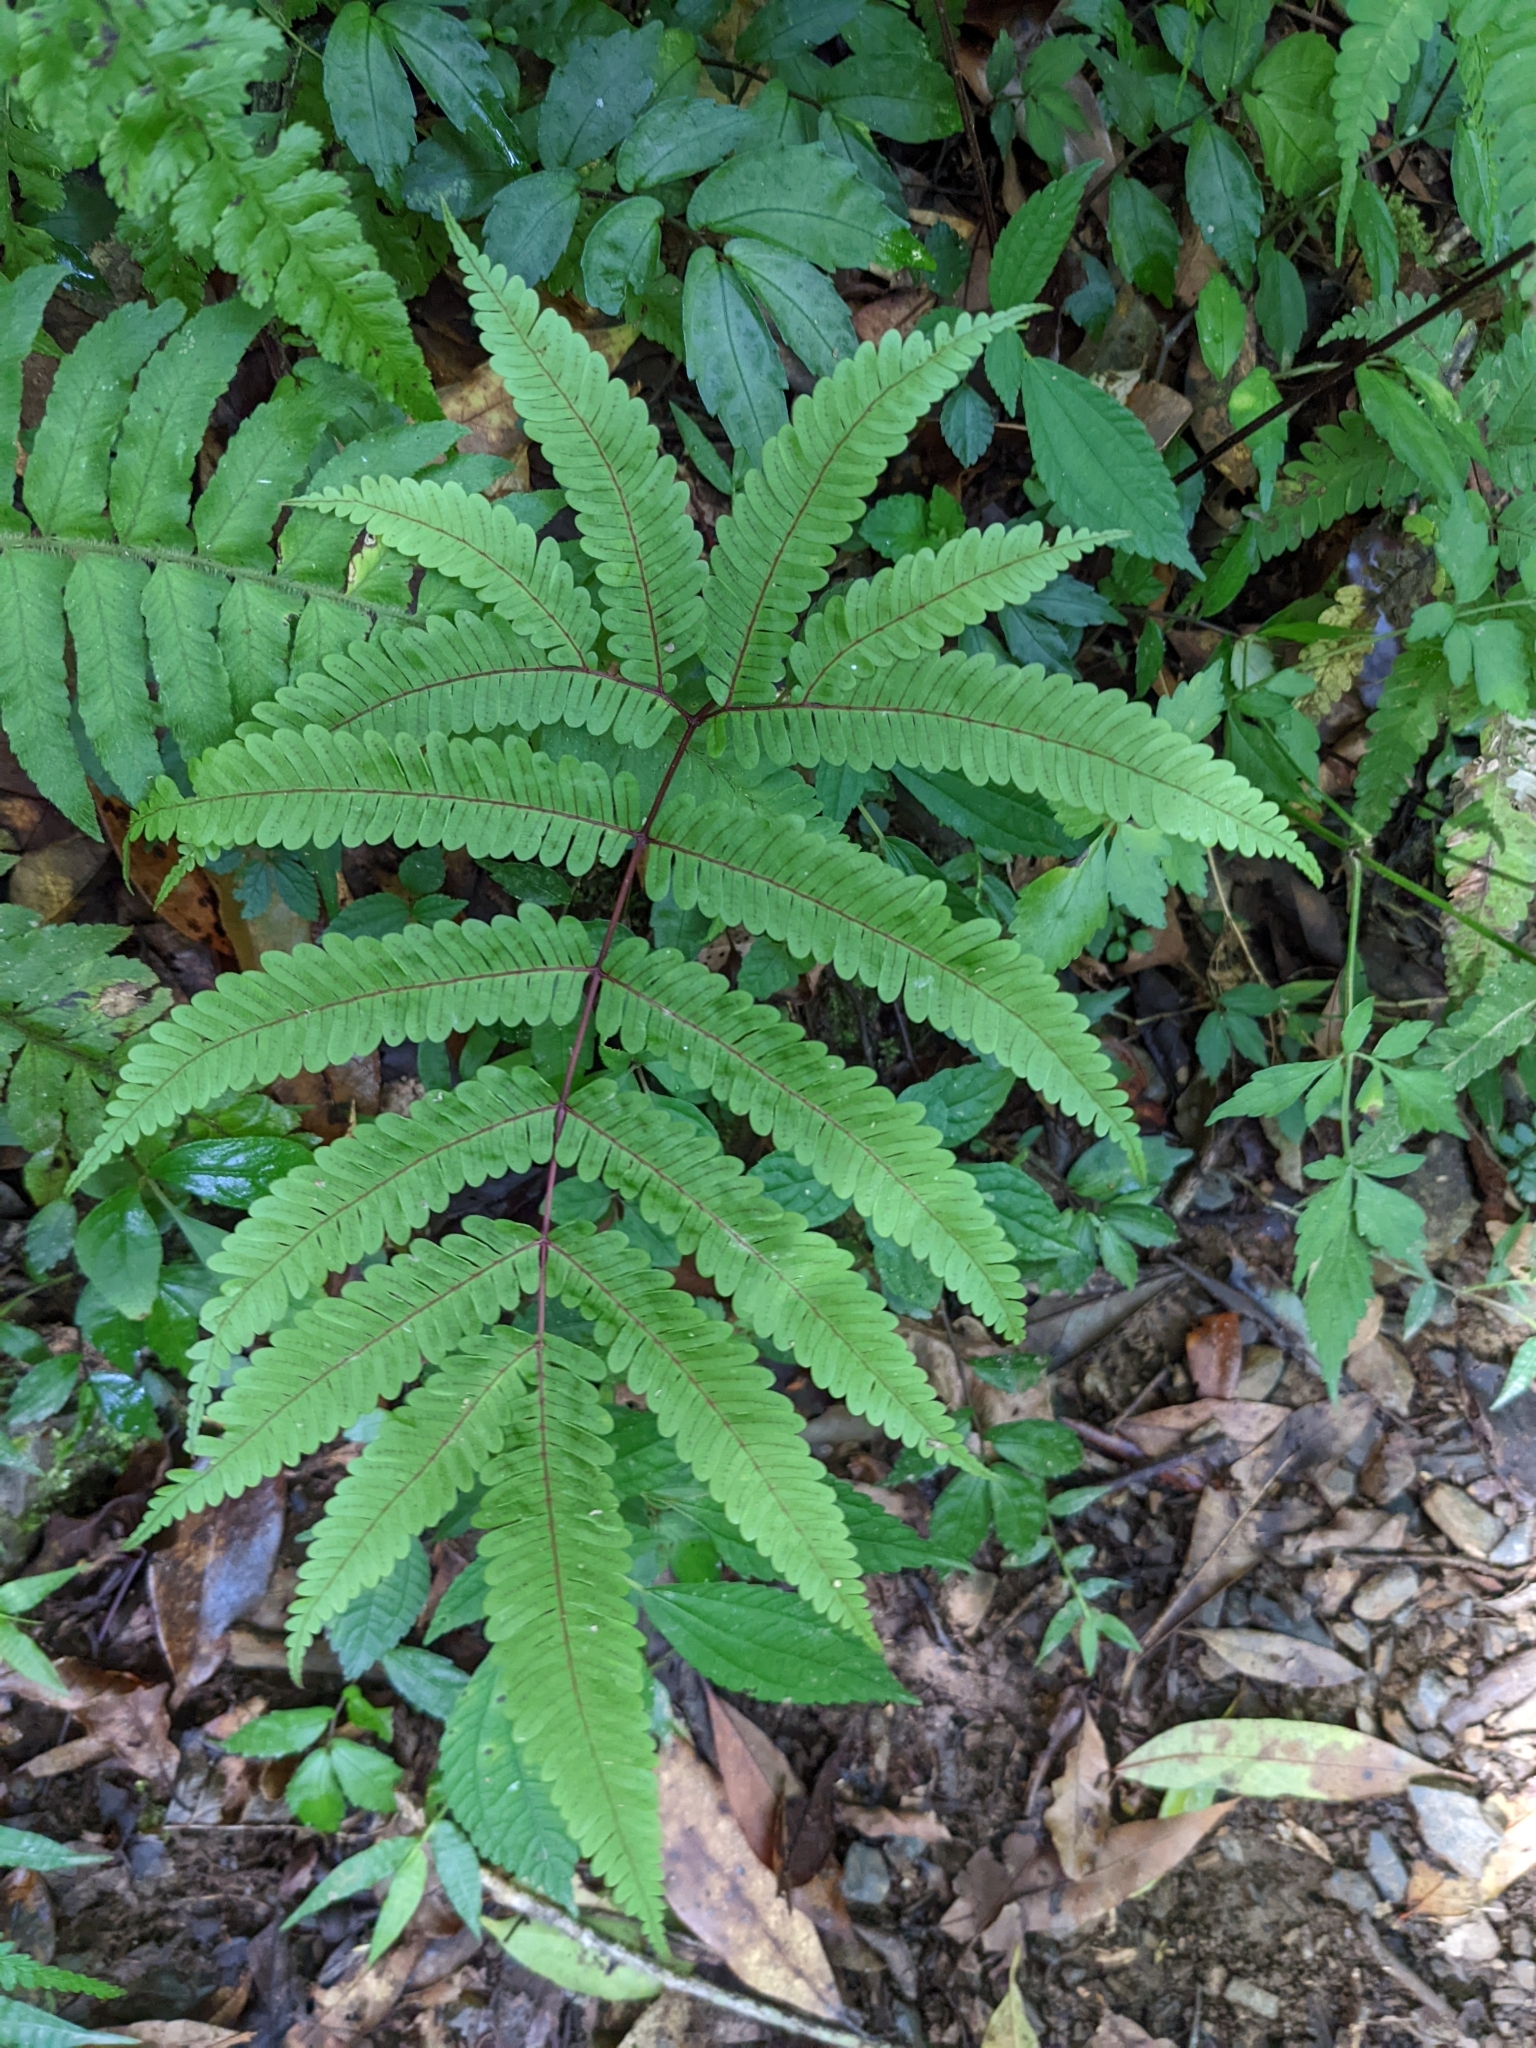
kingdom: Plantae
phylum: Tracheophyta
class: Polypodiopsida
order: Polypodiales
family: Pteridaceae
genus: Pteris
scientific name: Pteris setulosocostulata
